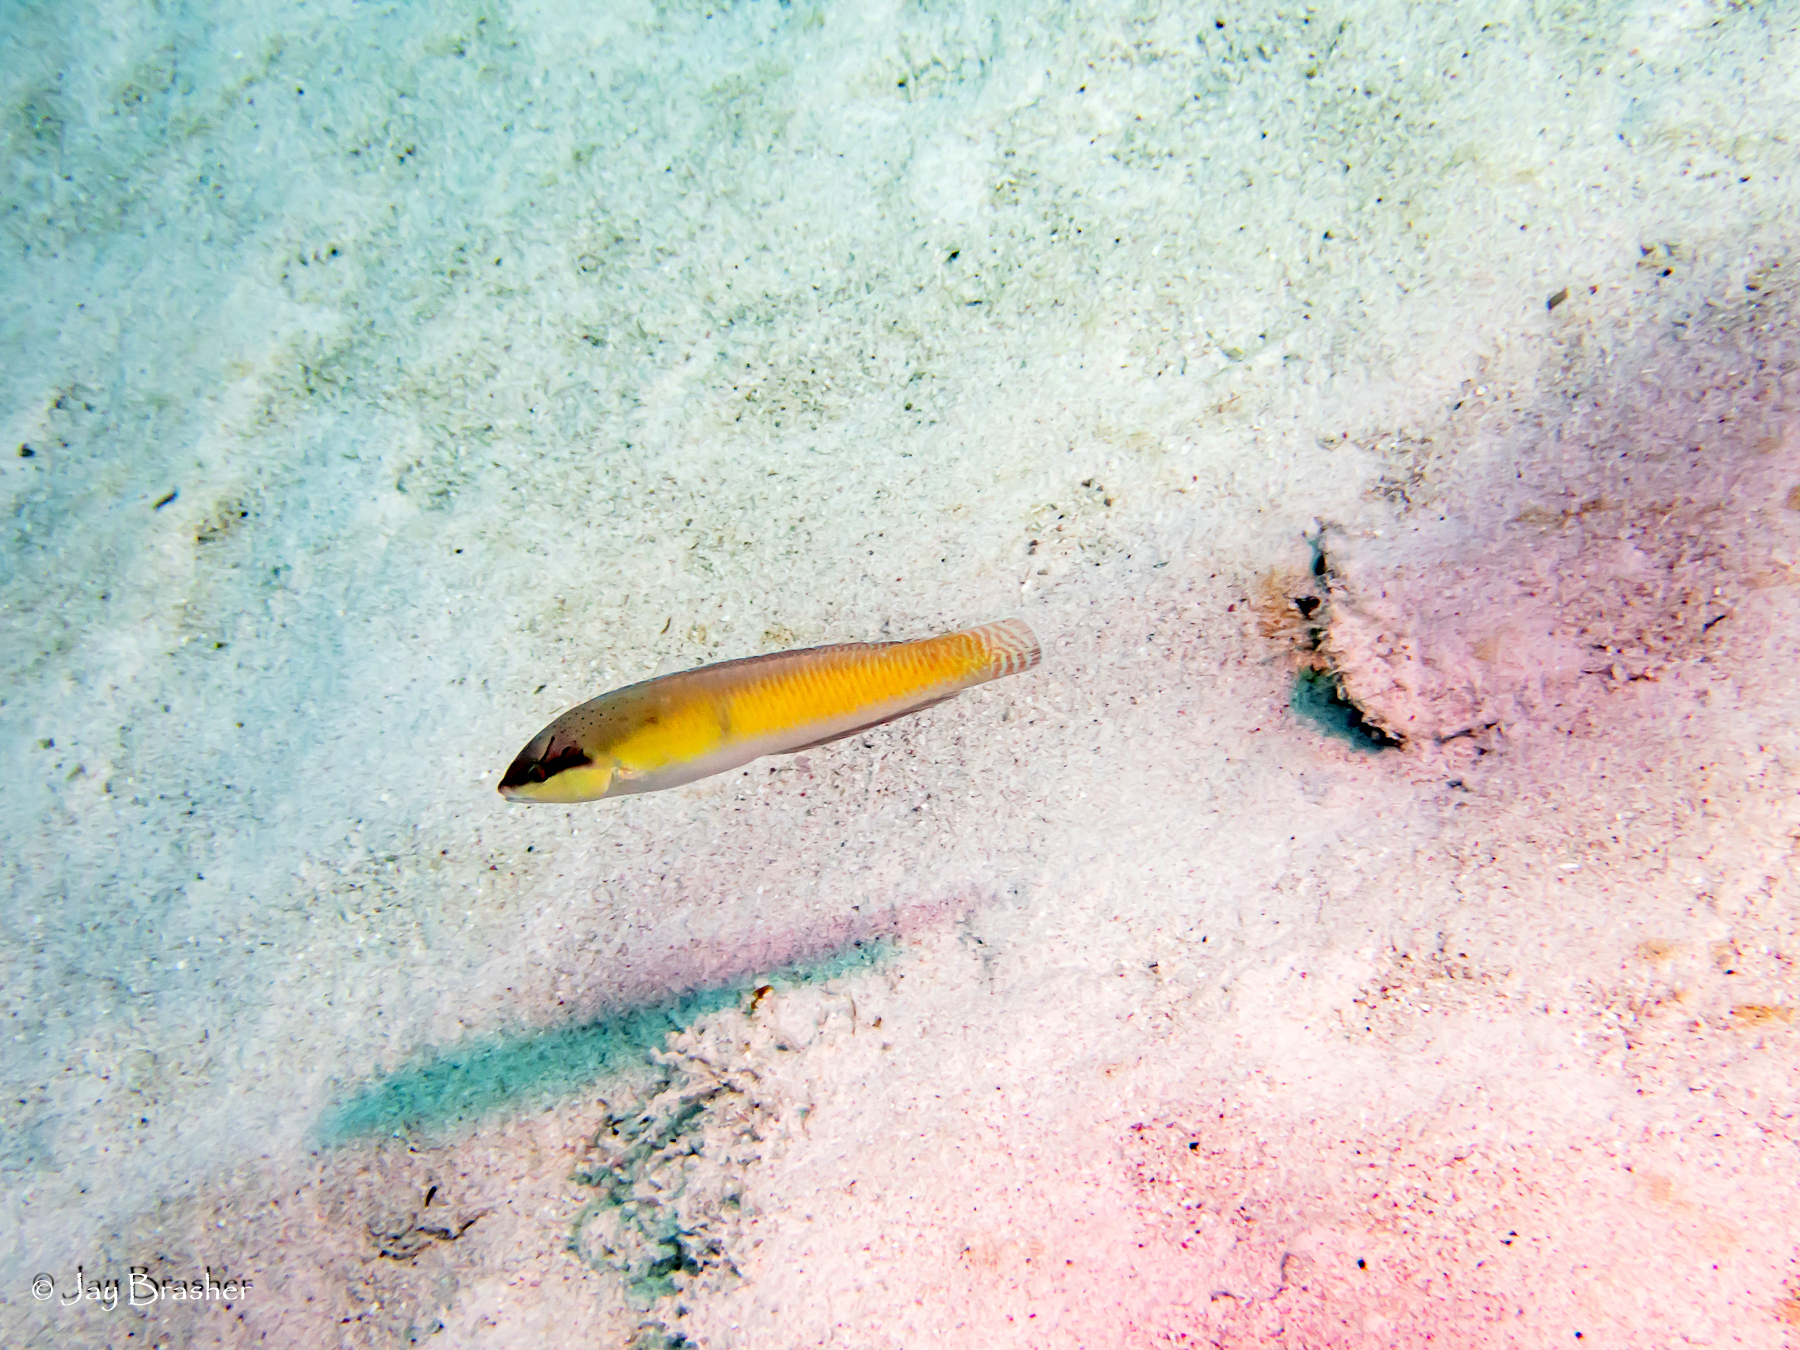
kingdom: Animalia
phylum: Chordata
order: Perciformes
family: Labridae
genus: Halichoeres
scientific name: Halichoeres garnoti
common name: Yellowhead wrasse
